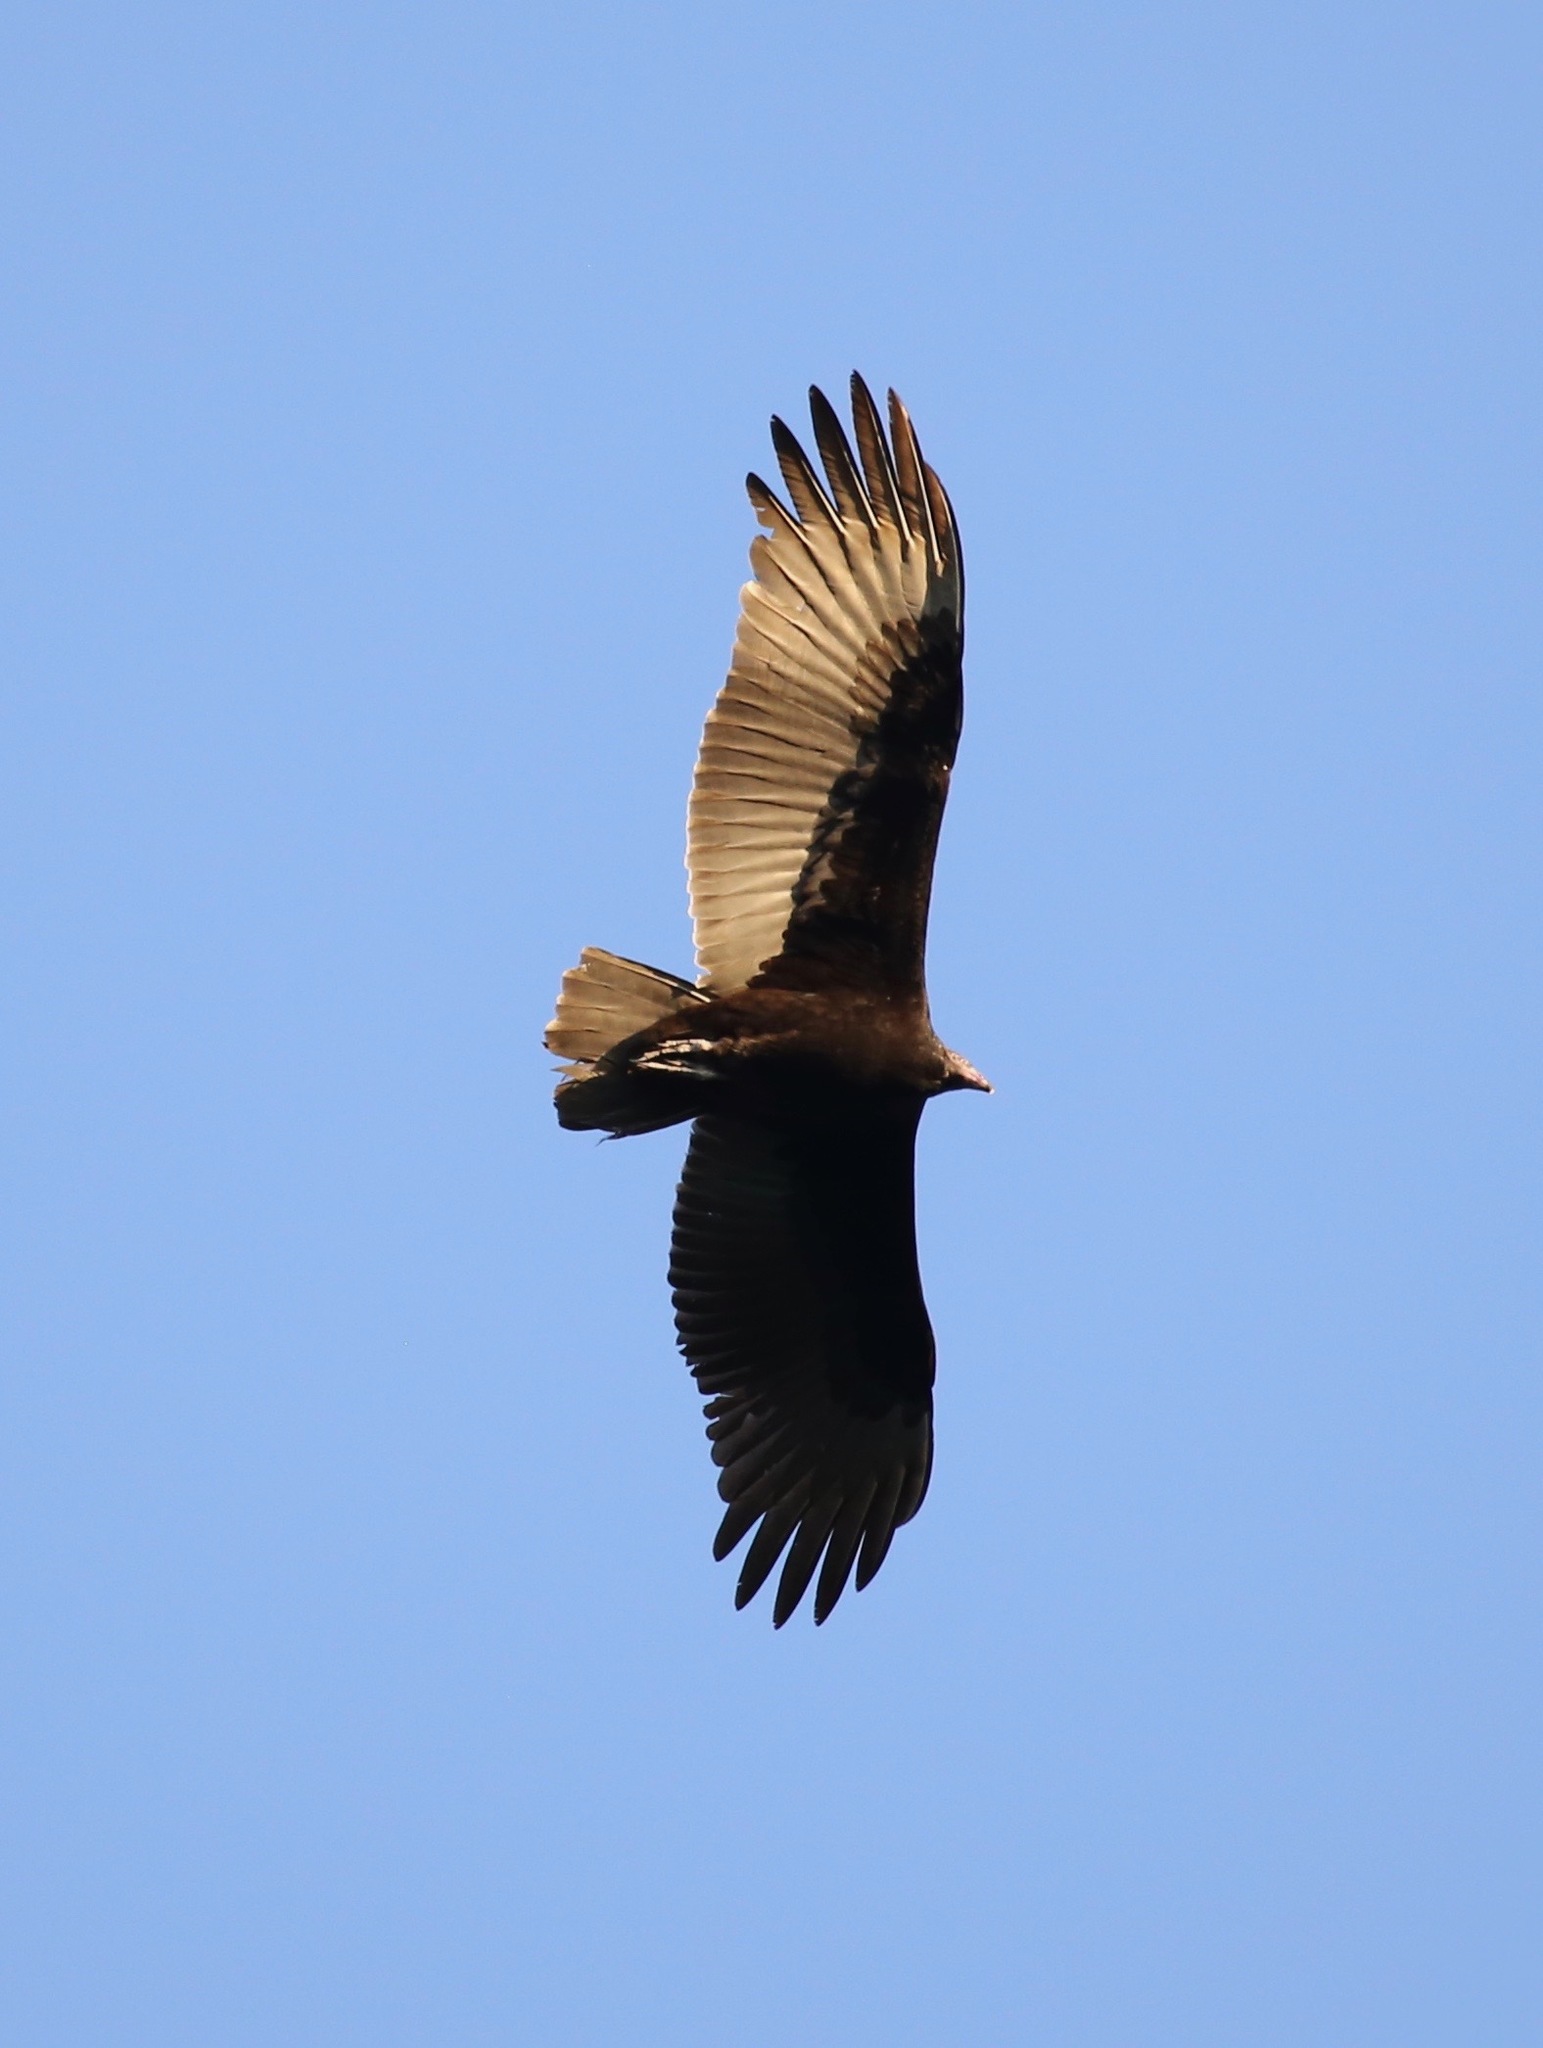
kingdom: Animalia
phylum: Chordata
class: Aves
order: Accipitriformes
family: Cathartidae
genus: Cathartes
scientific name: Cathartes aura
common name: Turkey vulture
